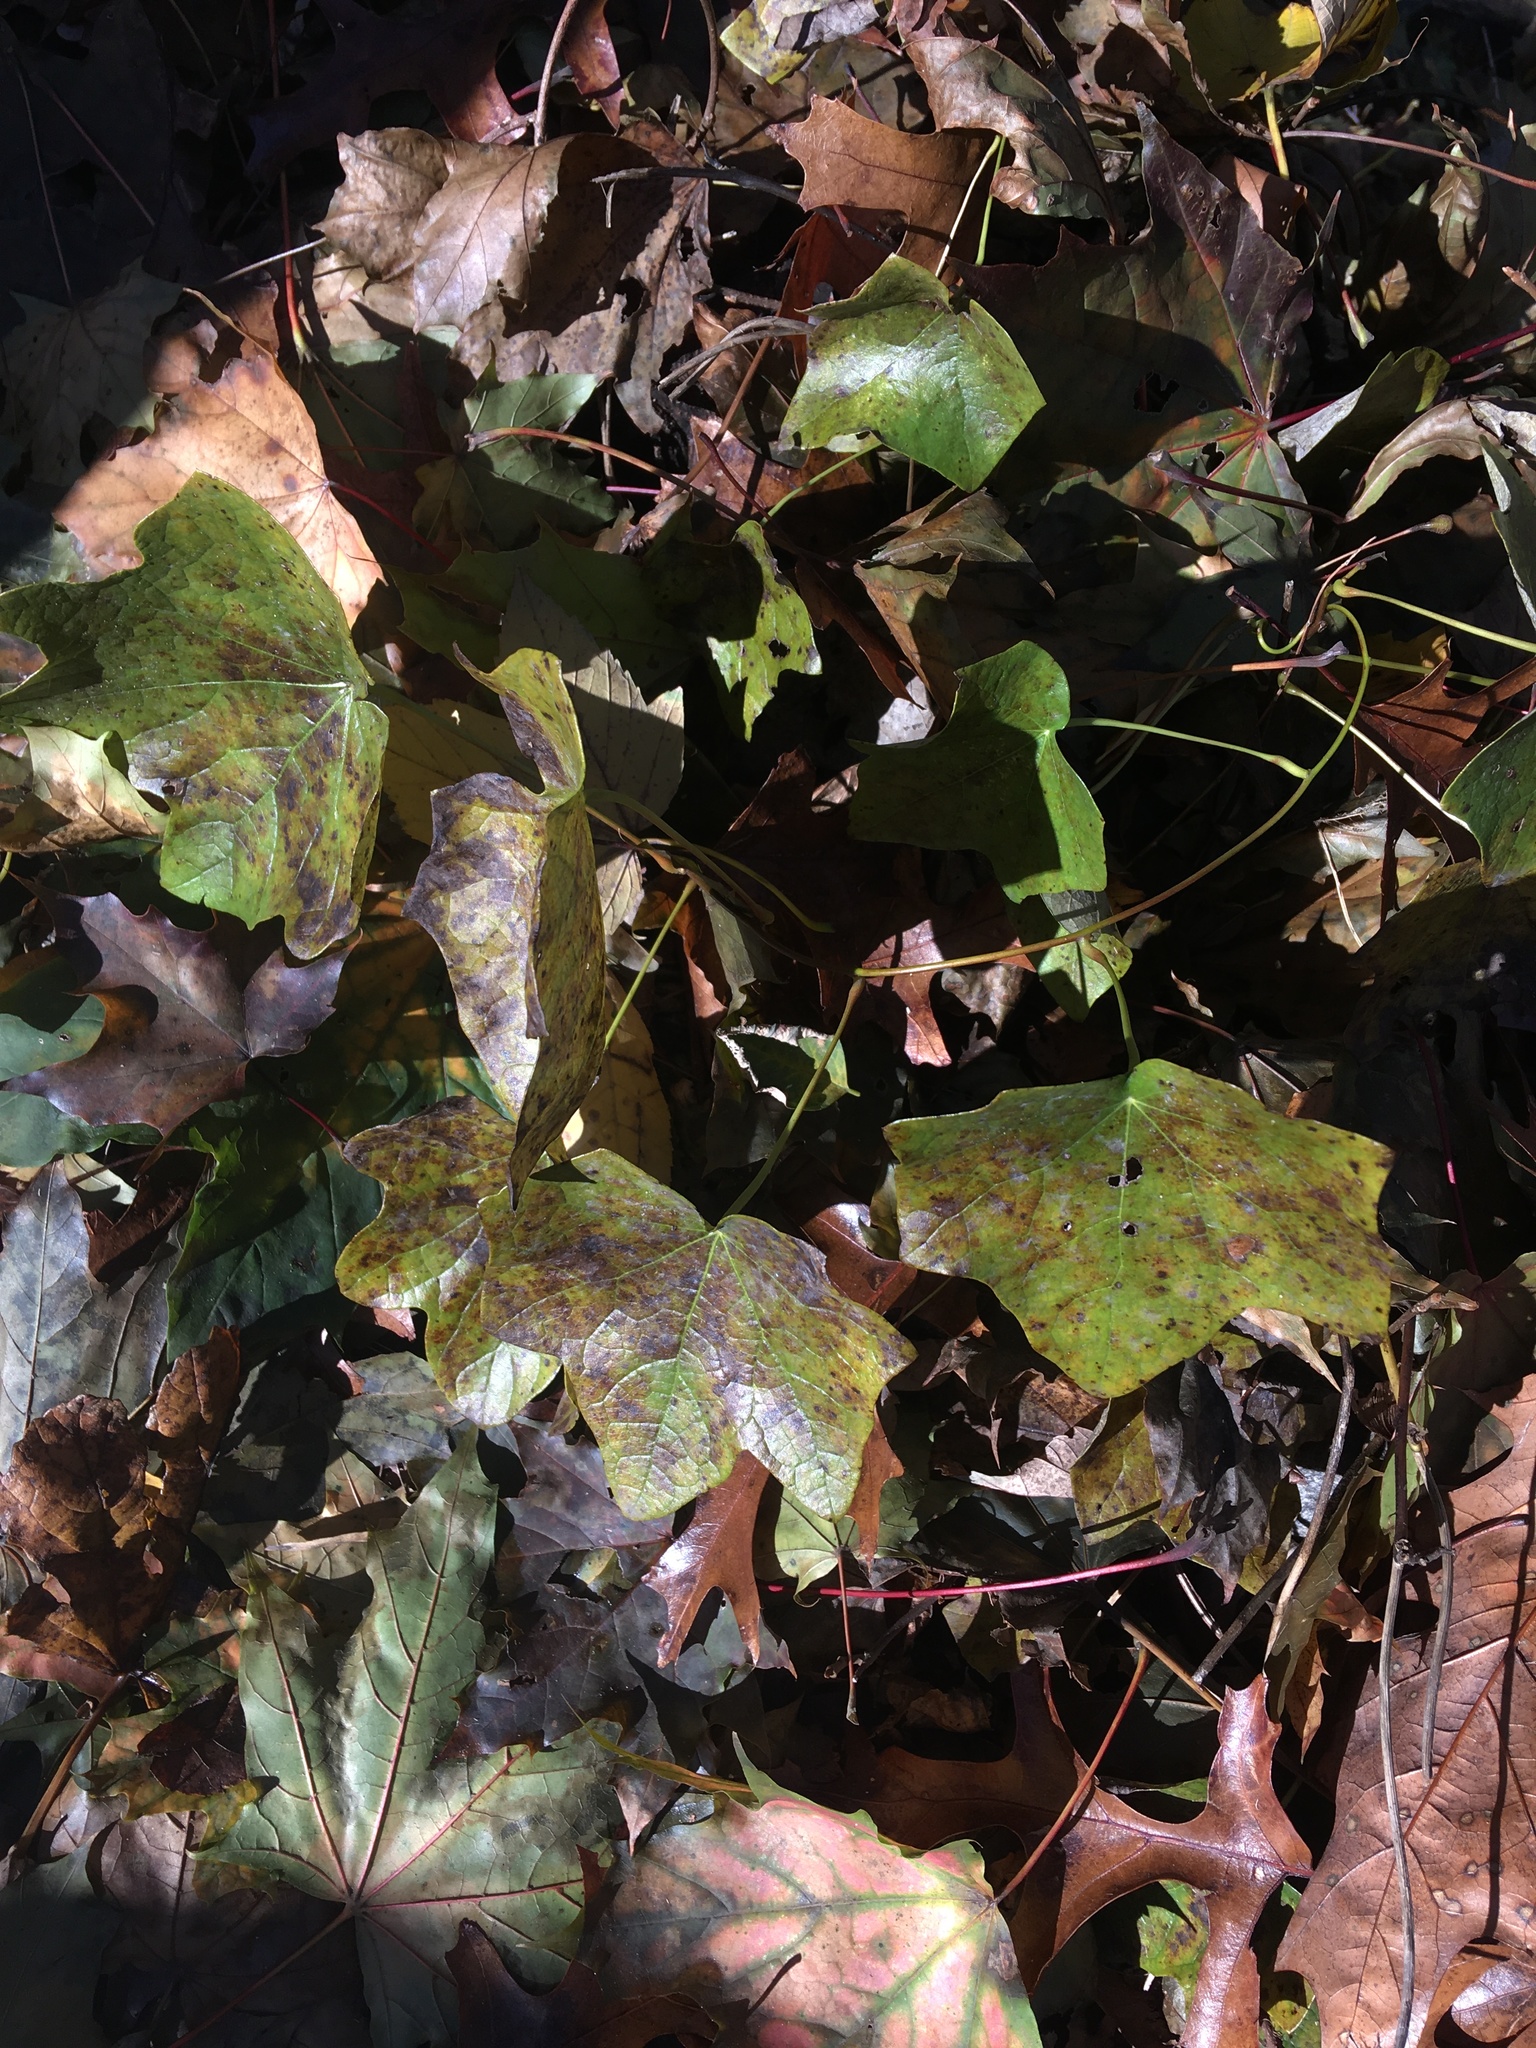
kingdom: Plantae
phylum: Tracheophyta
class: Magnoliopsida
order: Ranunculales
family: Menispermaceae
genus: Menispermum
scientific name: Menispermum canadense
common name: Moonseed
